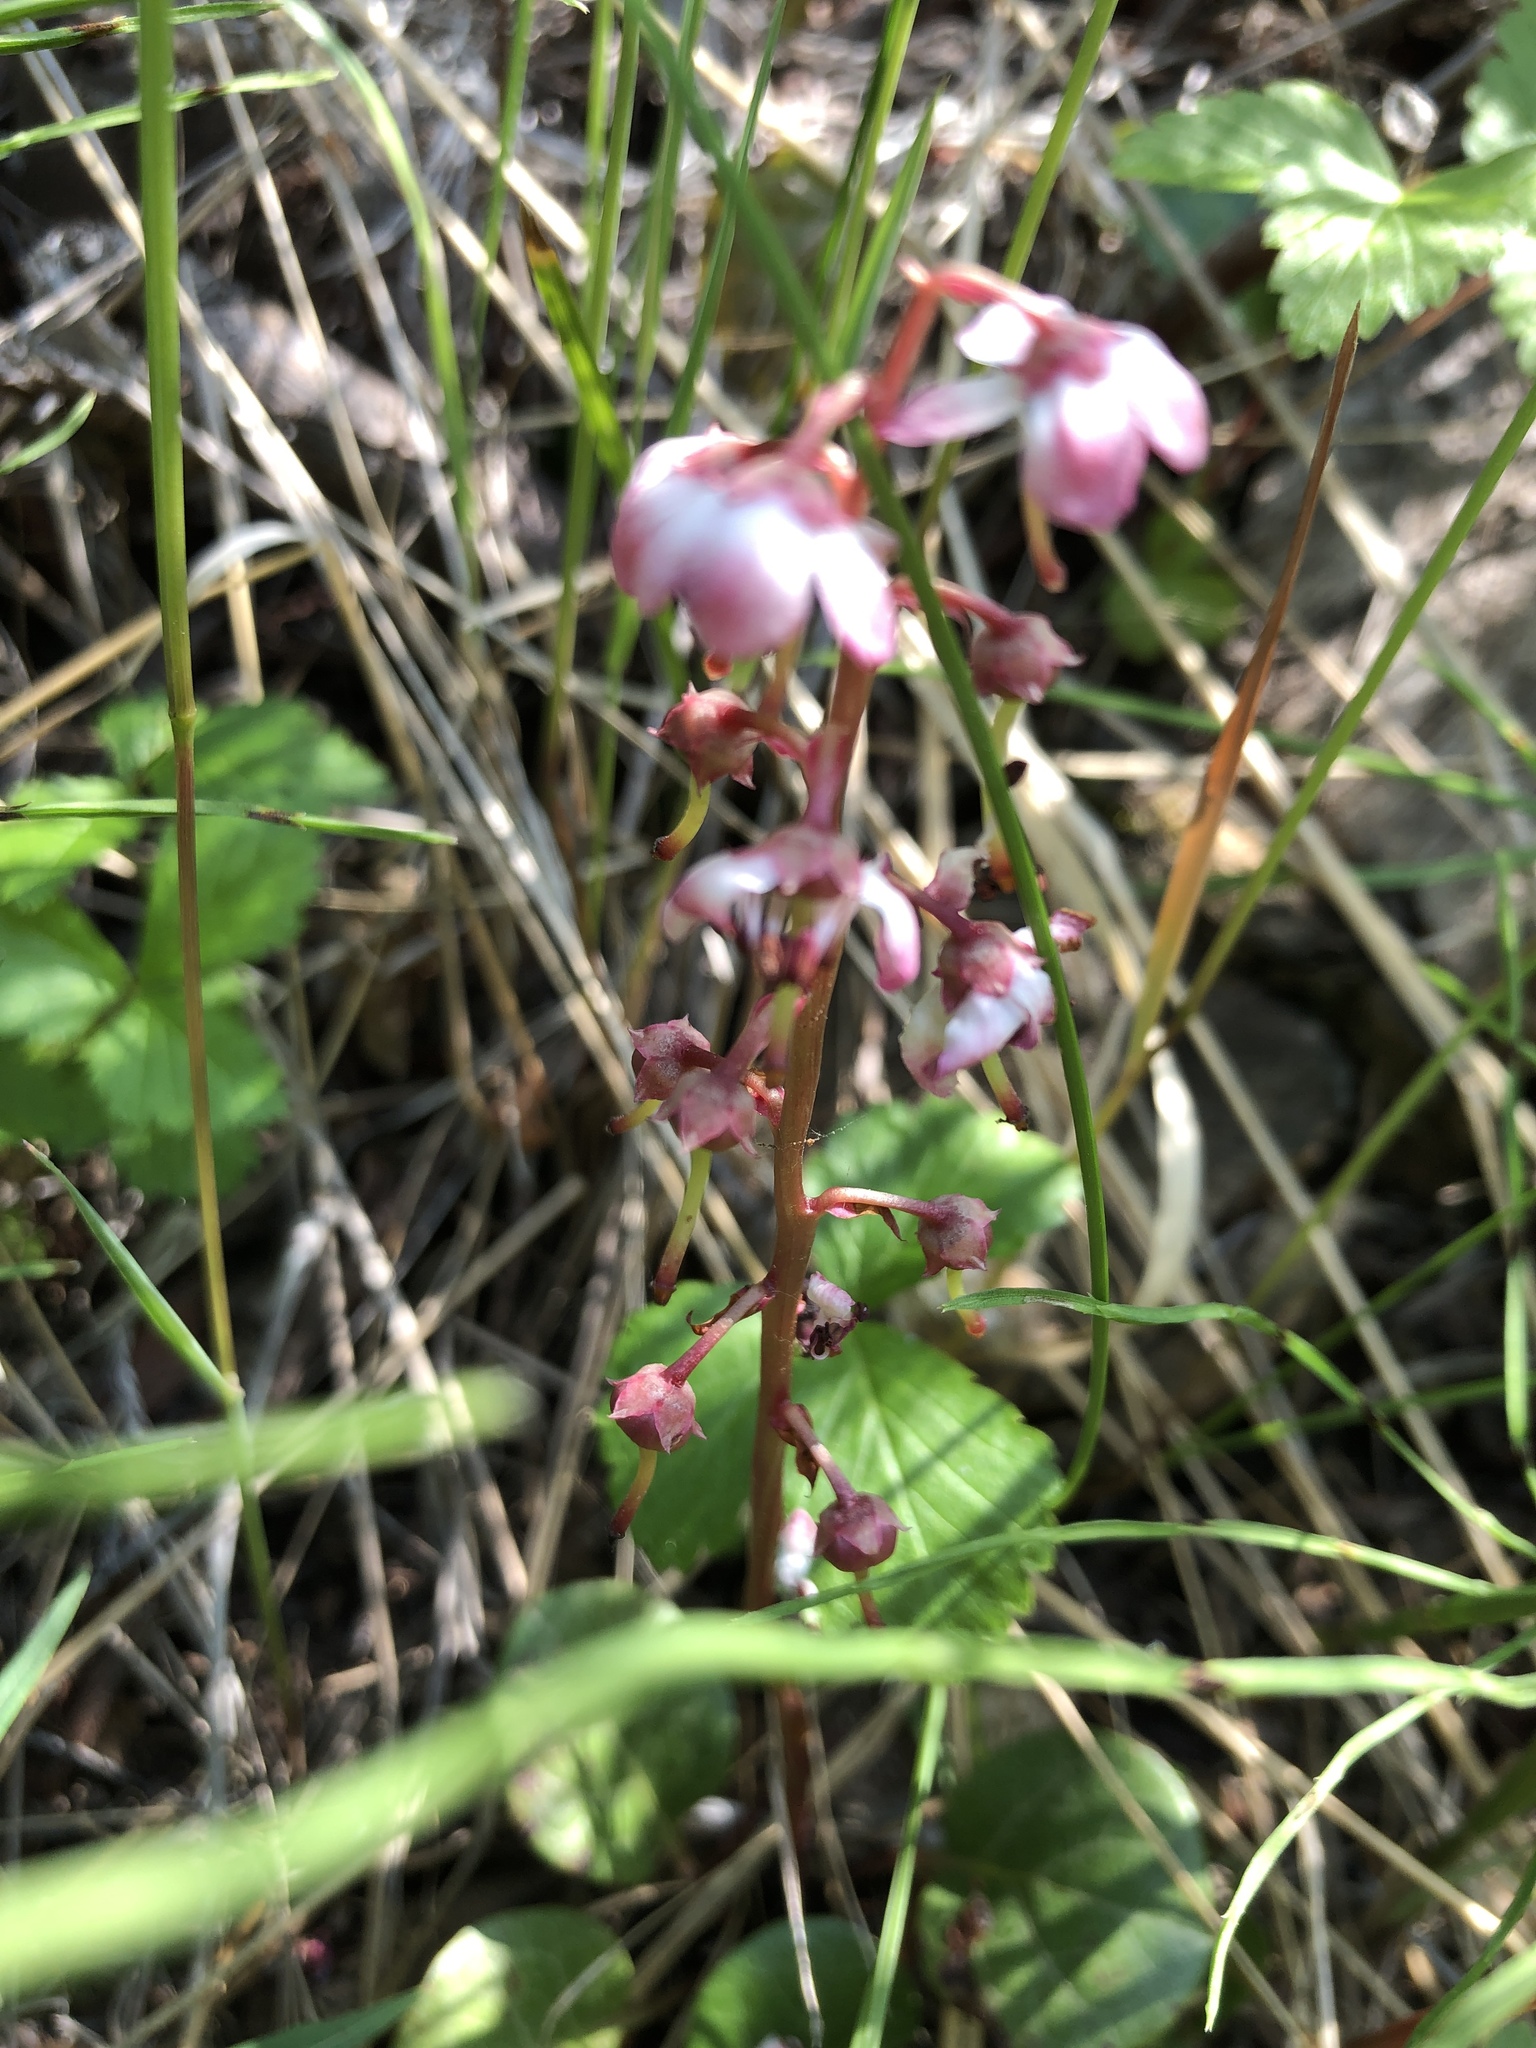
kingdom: Plantae
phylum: Tracheophyta
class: Magnoliopsida
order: Ericales
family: Ericaceae
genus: Pyrola
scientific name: Pyrola asarifolia
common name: Bog wintergreen
